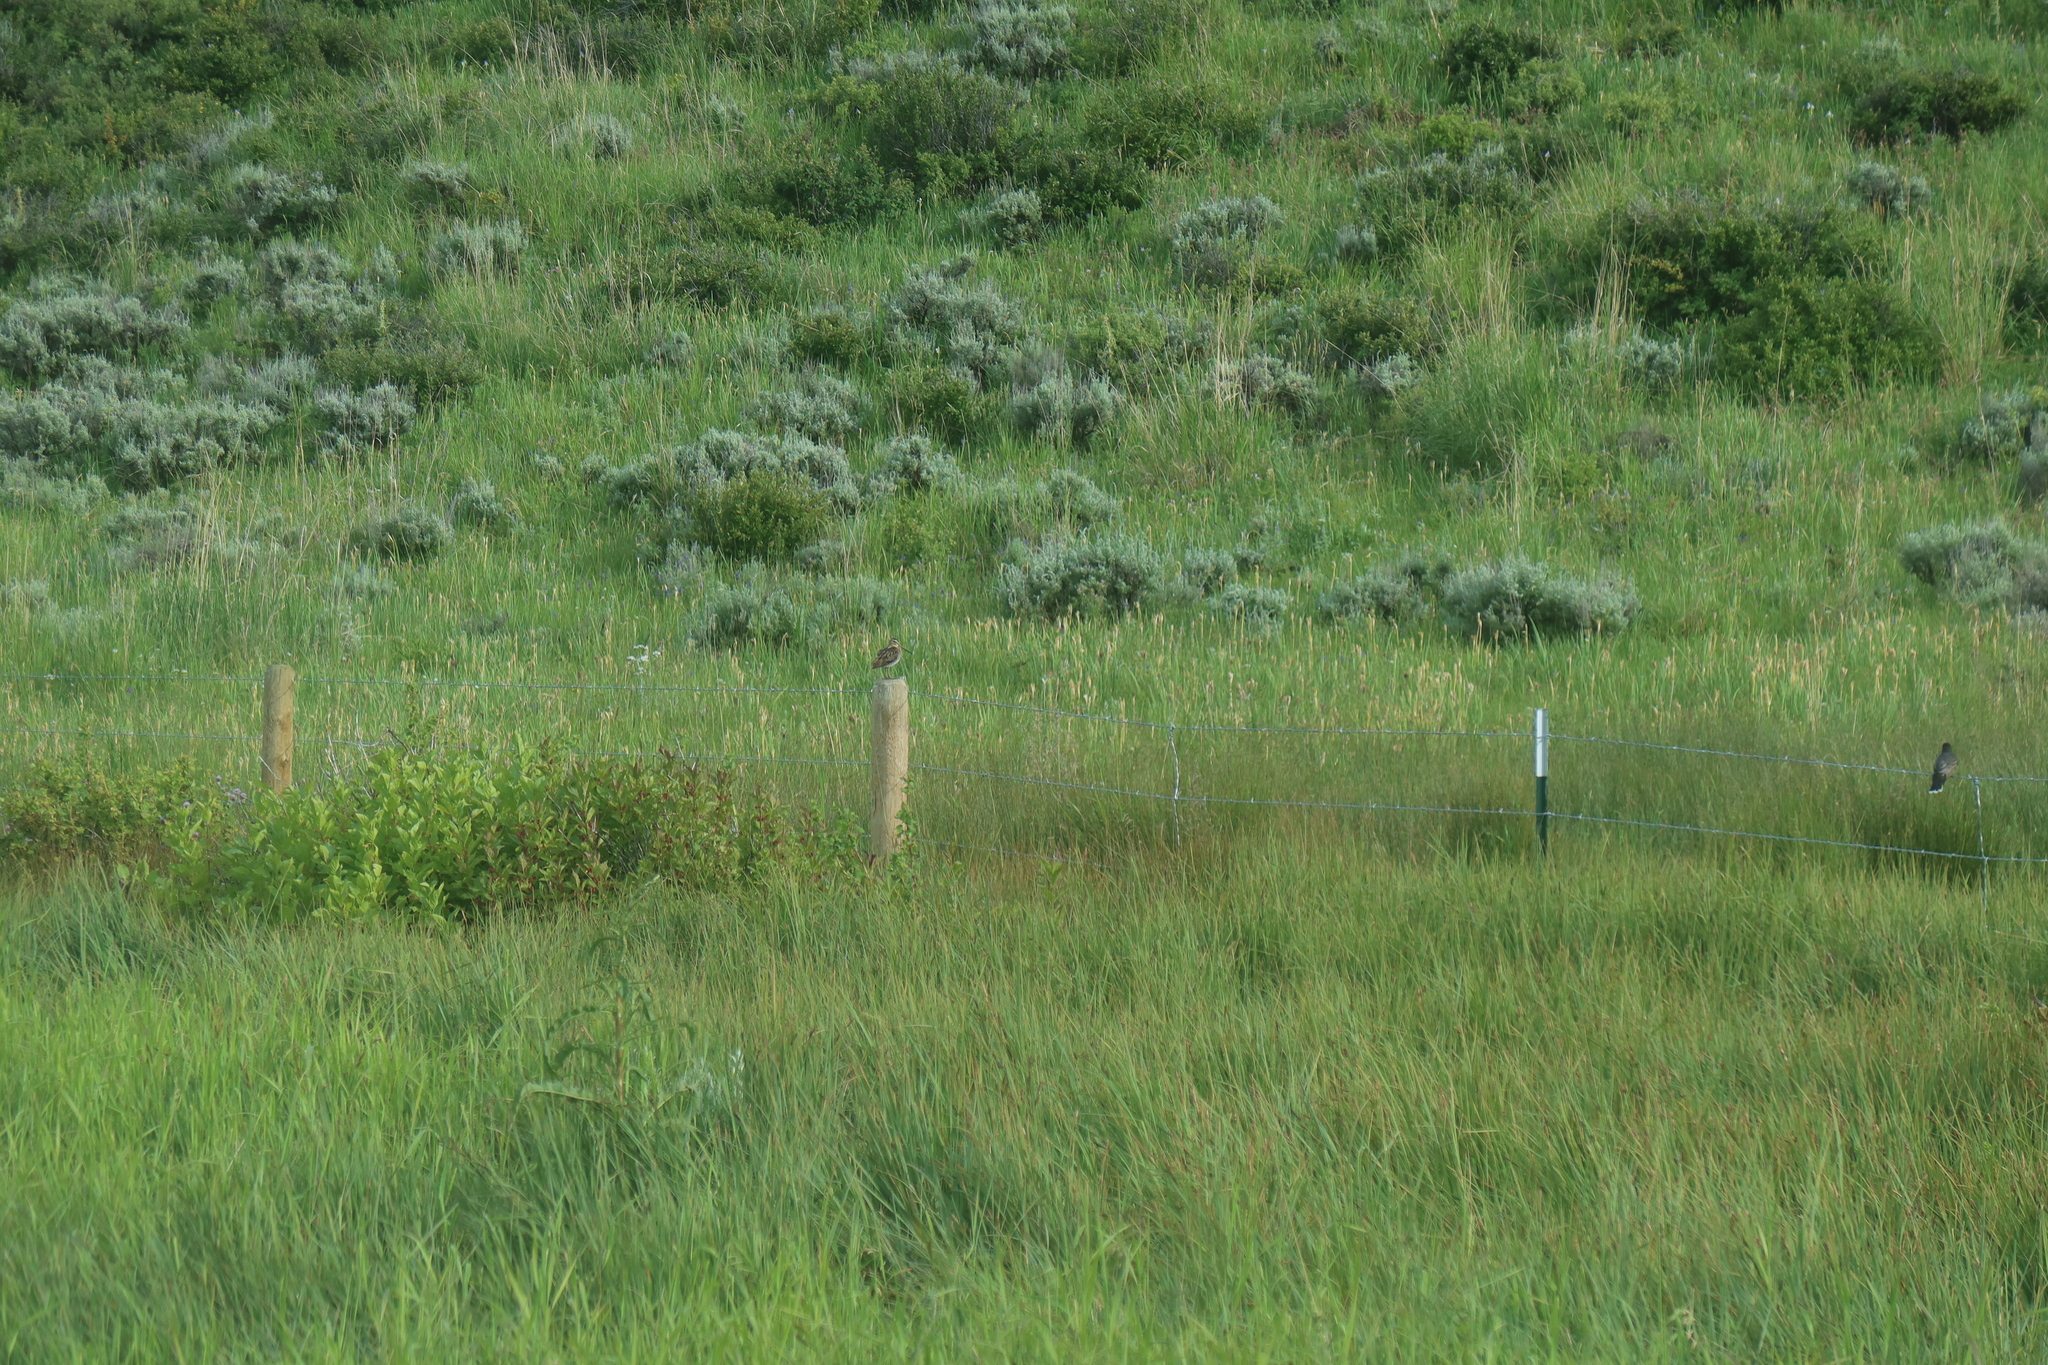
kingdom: Animalia
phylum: Chordata
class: Aves
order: Charadriiformes
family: Scolopacidae
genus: Gallinago
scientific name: Gallinago delicata
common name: Wilson's snipe
